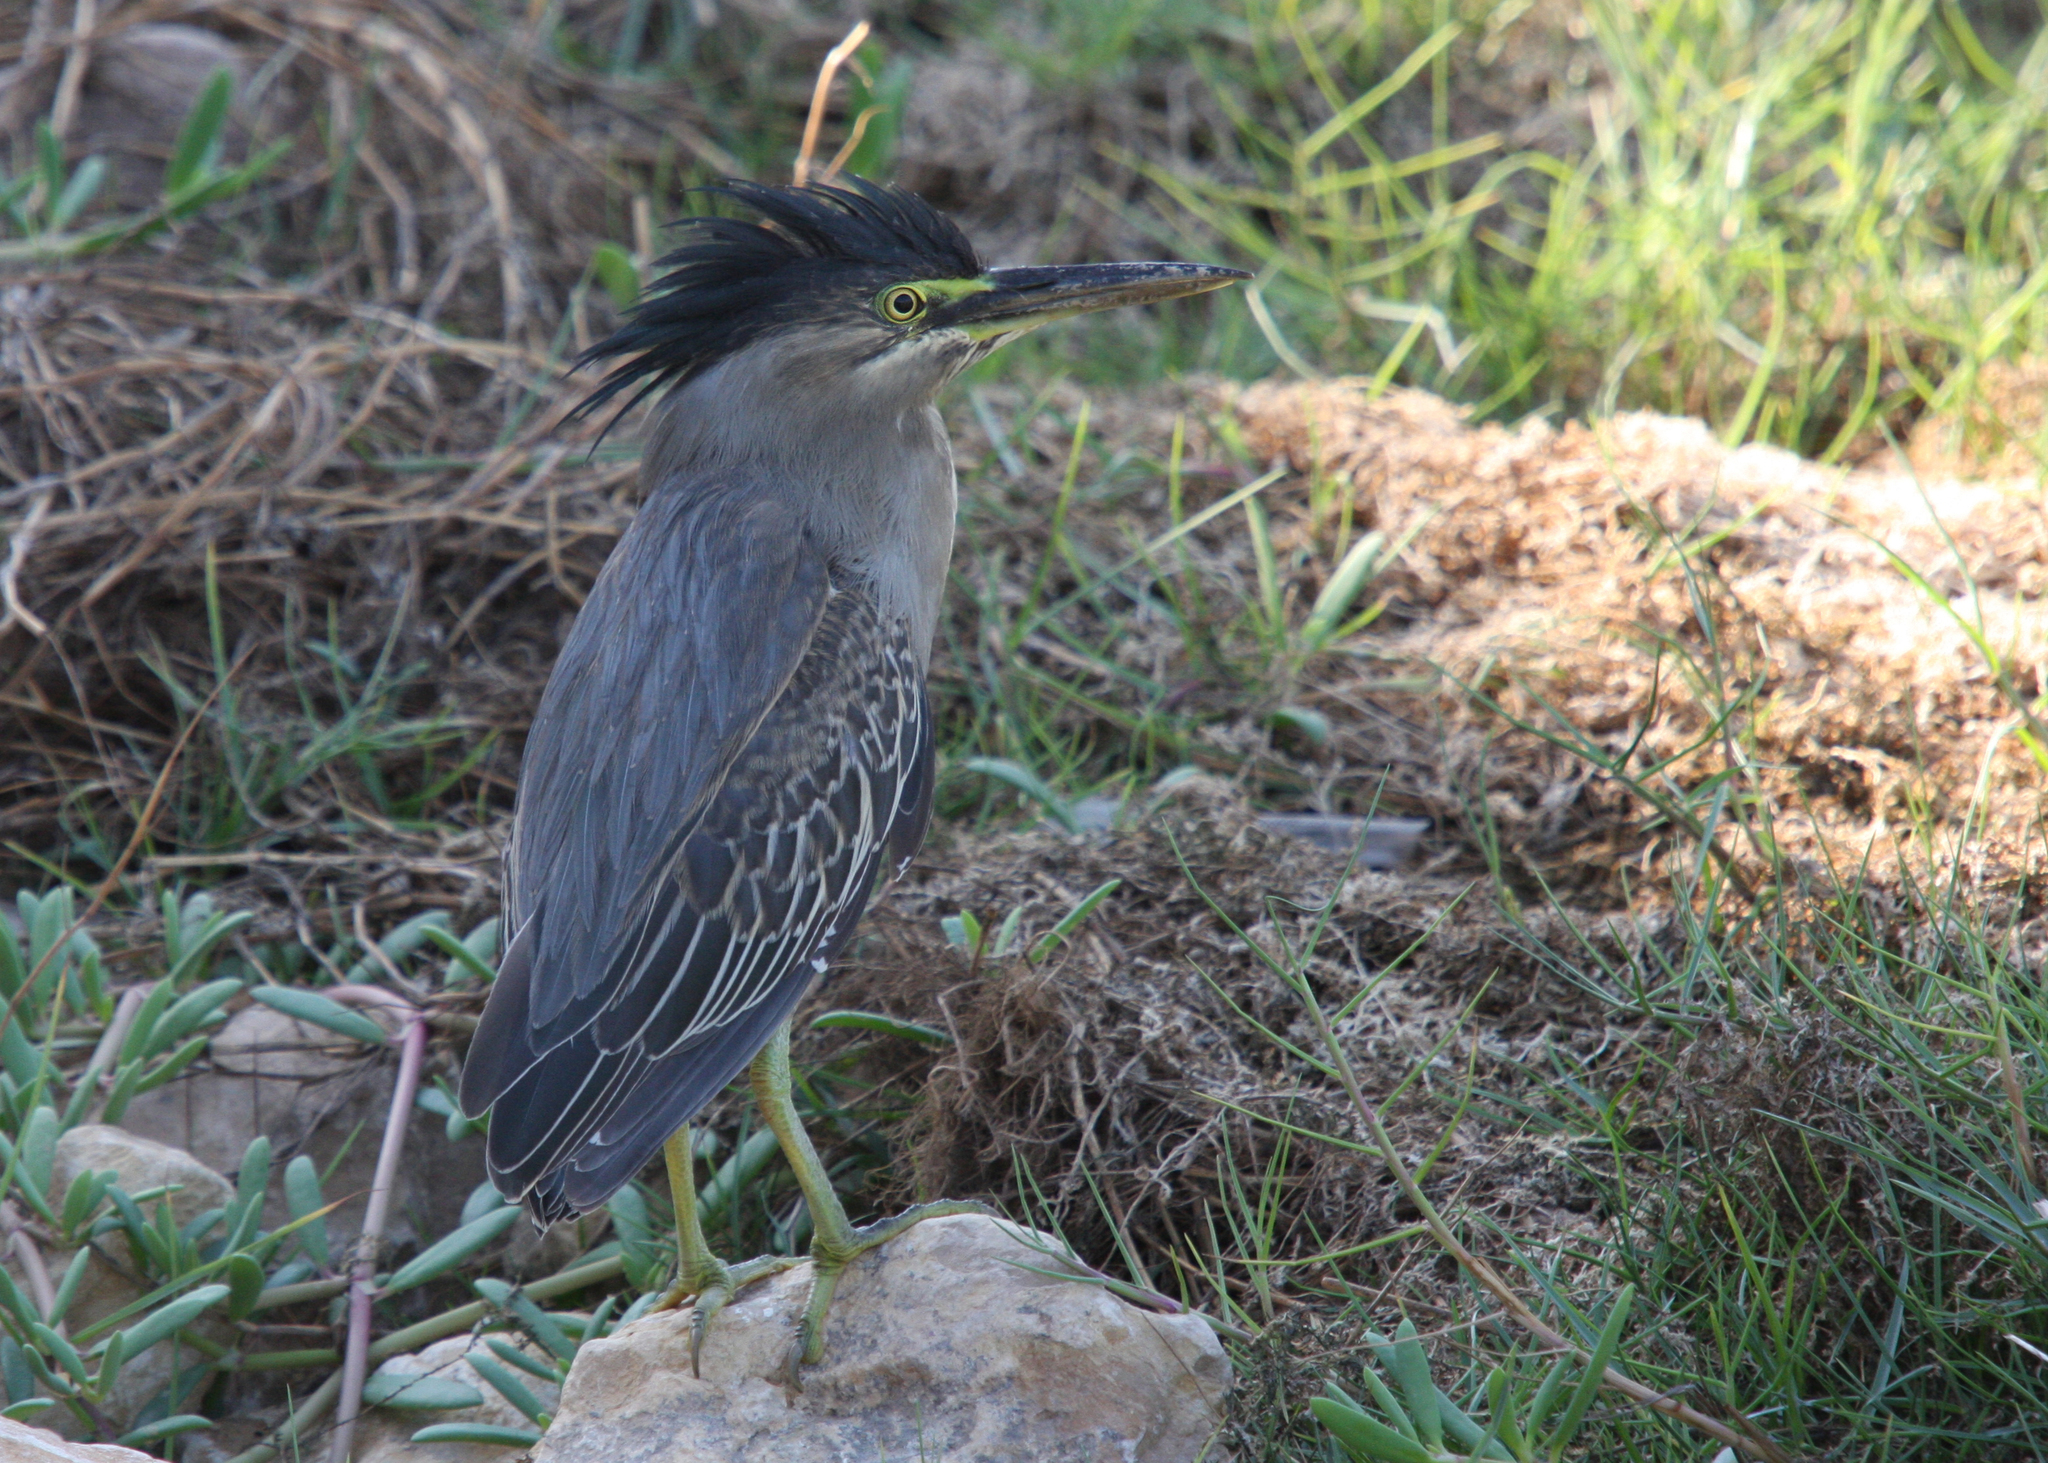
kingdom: Animalia
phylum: Chordata
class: Aves
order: Pelecaniformes
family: Ardeidae
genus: Butorides
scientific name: Butorides striata
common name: Striated heron
